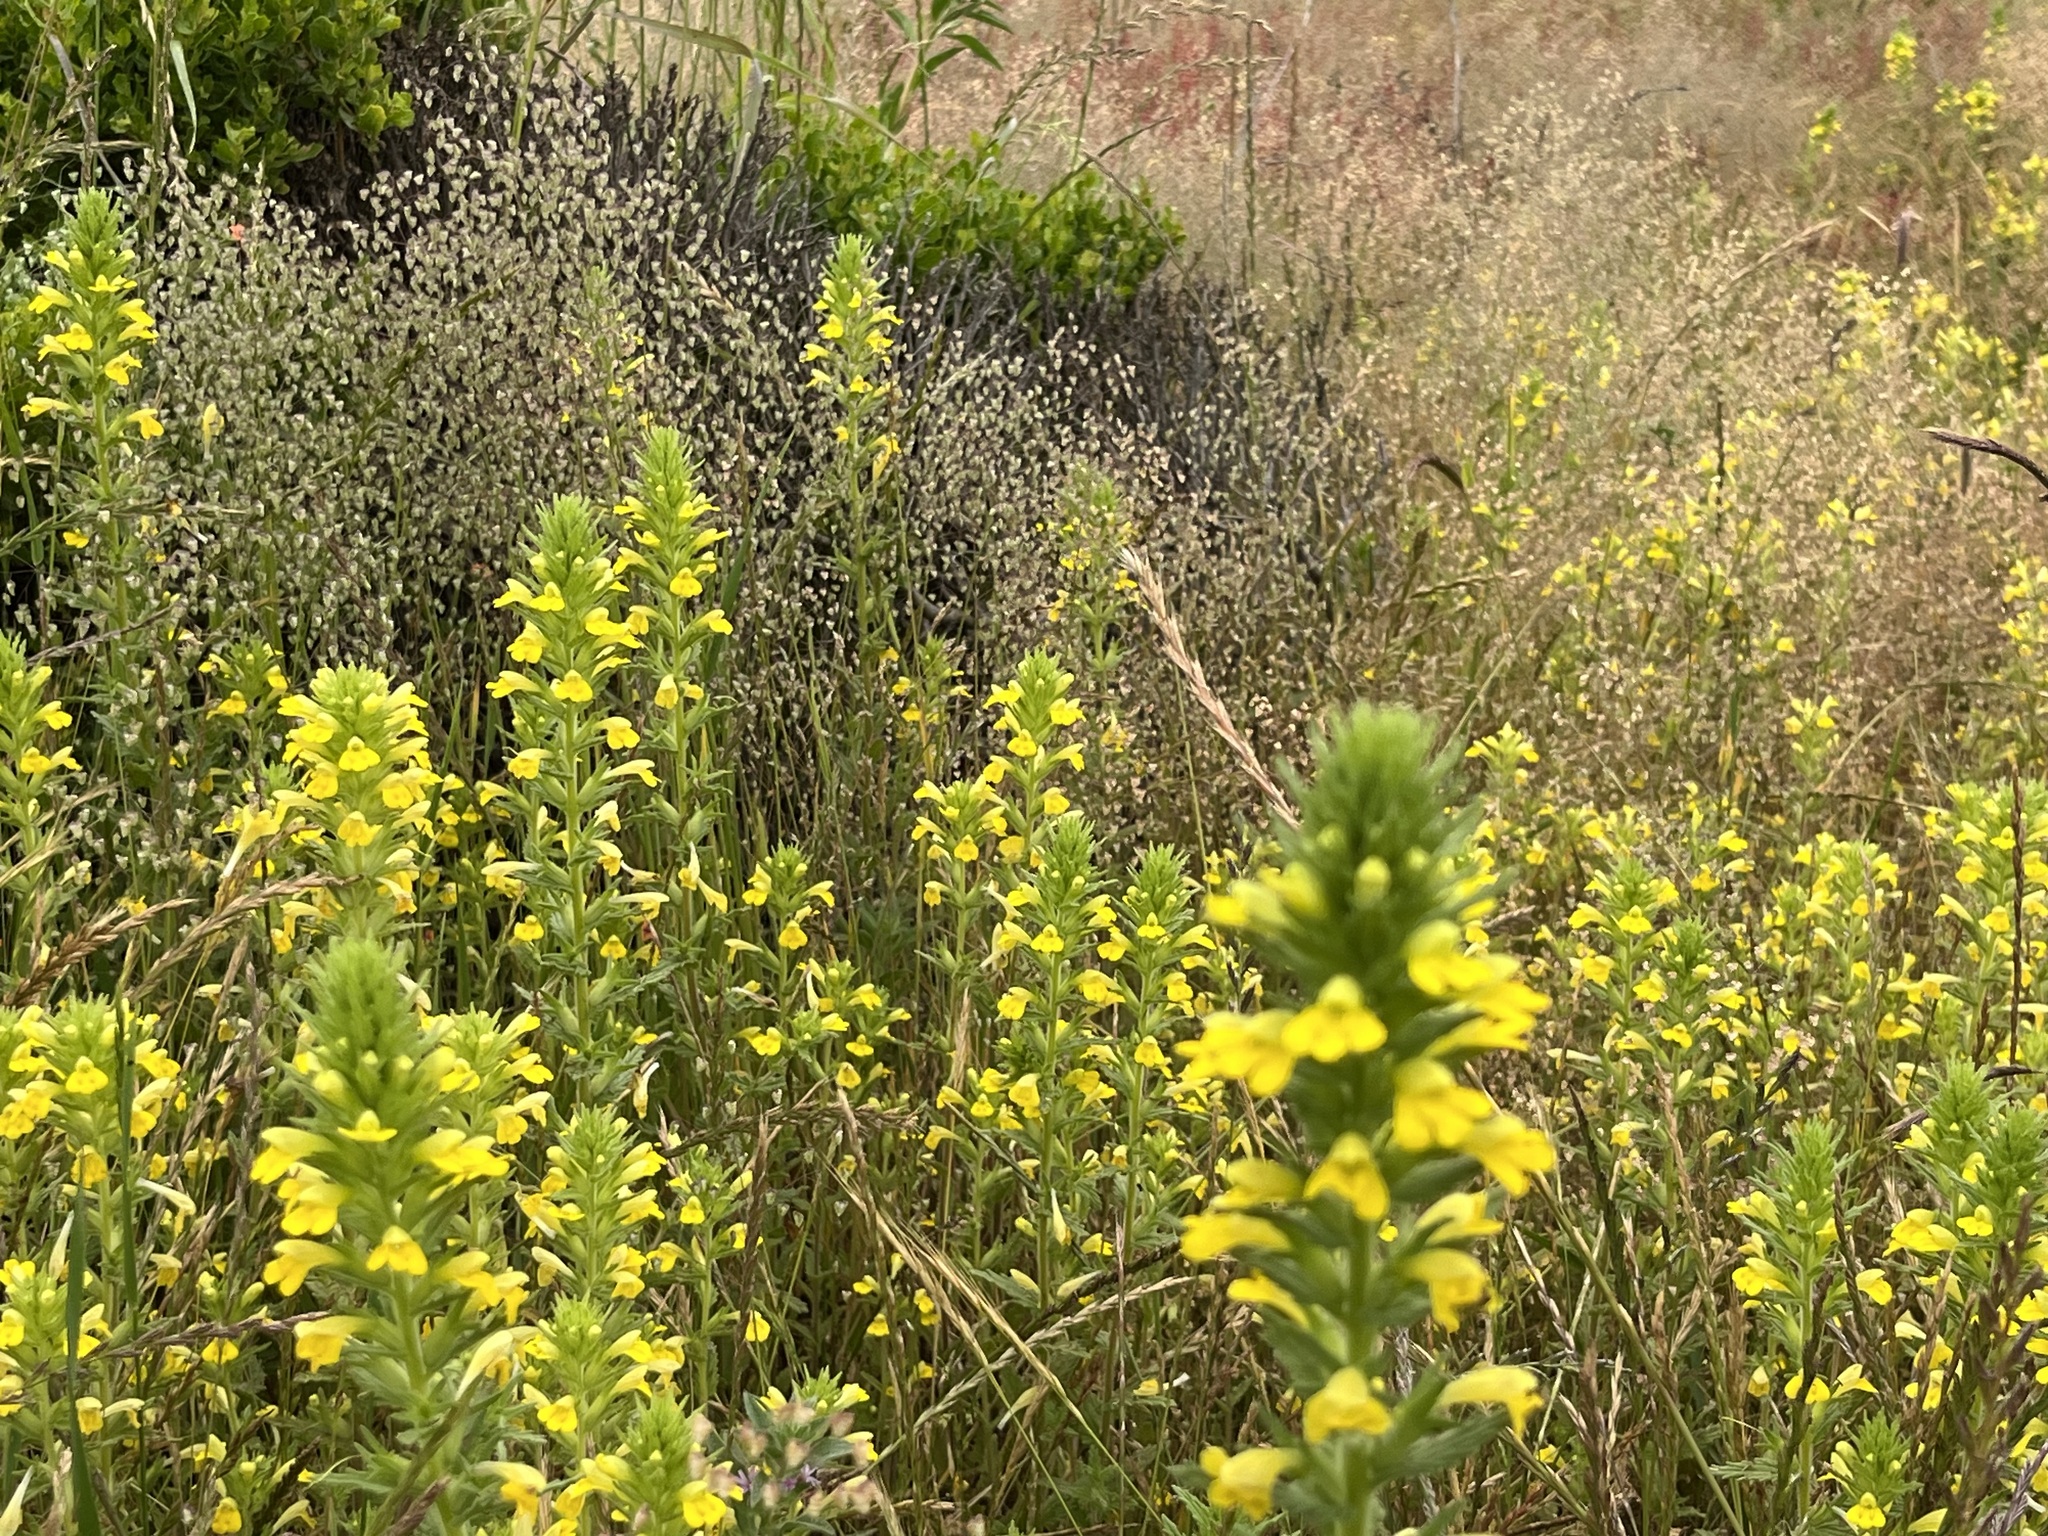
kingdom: Plantae
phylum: Tracheophyta
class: Magnoliopsida
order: Lamiales
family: Orobanchaceae
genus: Bellardia
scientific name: Bellardia viscosa
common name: Sticky parentucellia
